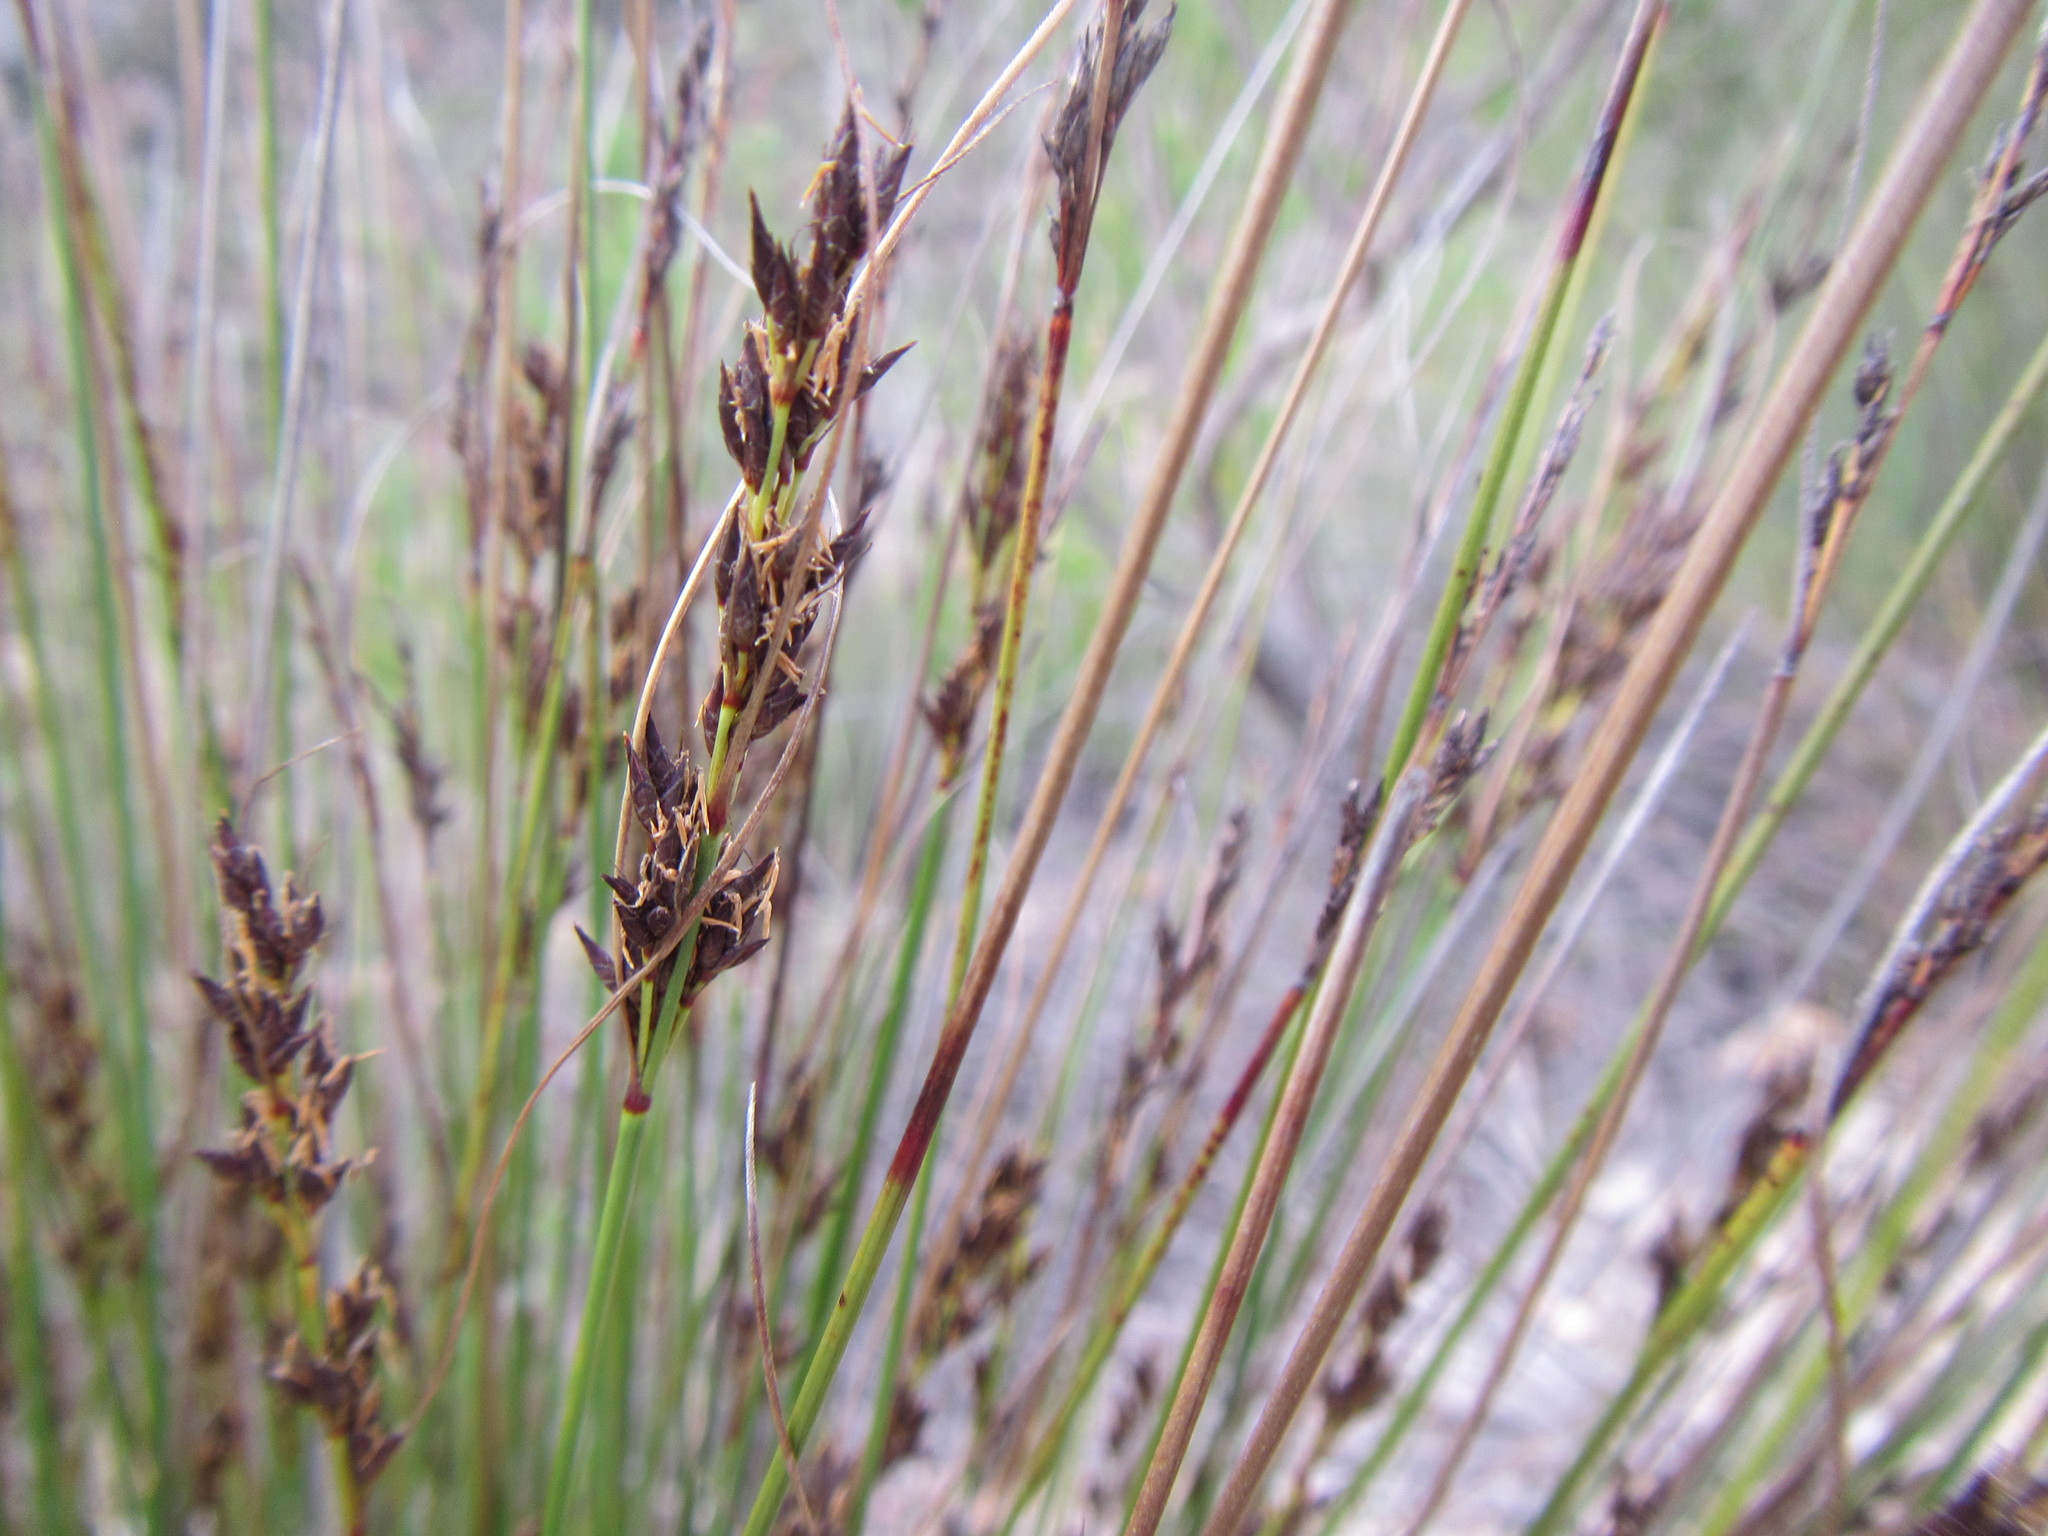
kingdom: Plantae
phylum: Tracheophyta
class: Liliopsida
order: Poales
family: Cyperaceae
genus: Schoenus
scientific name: Schoenus submarginalis
